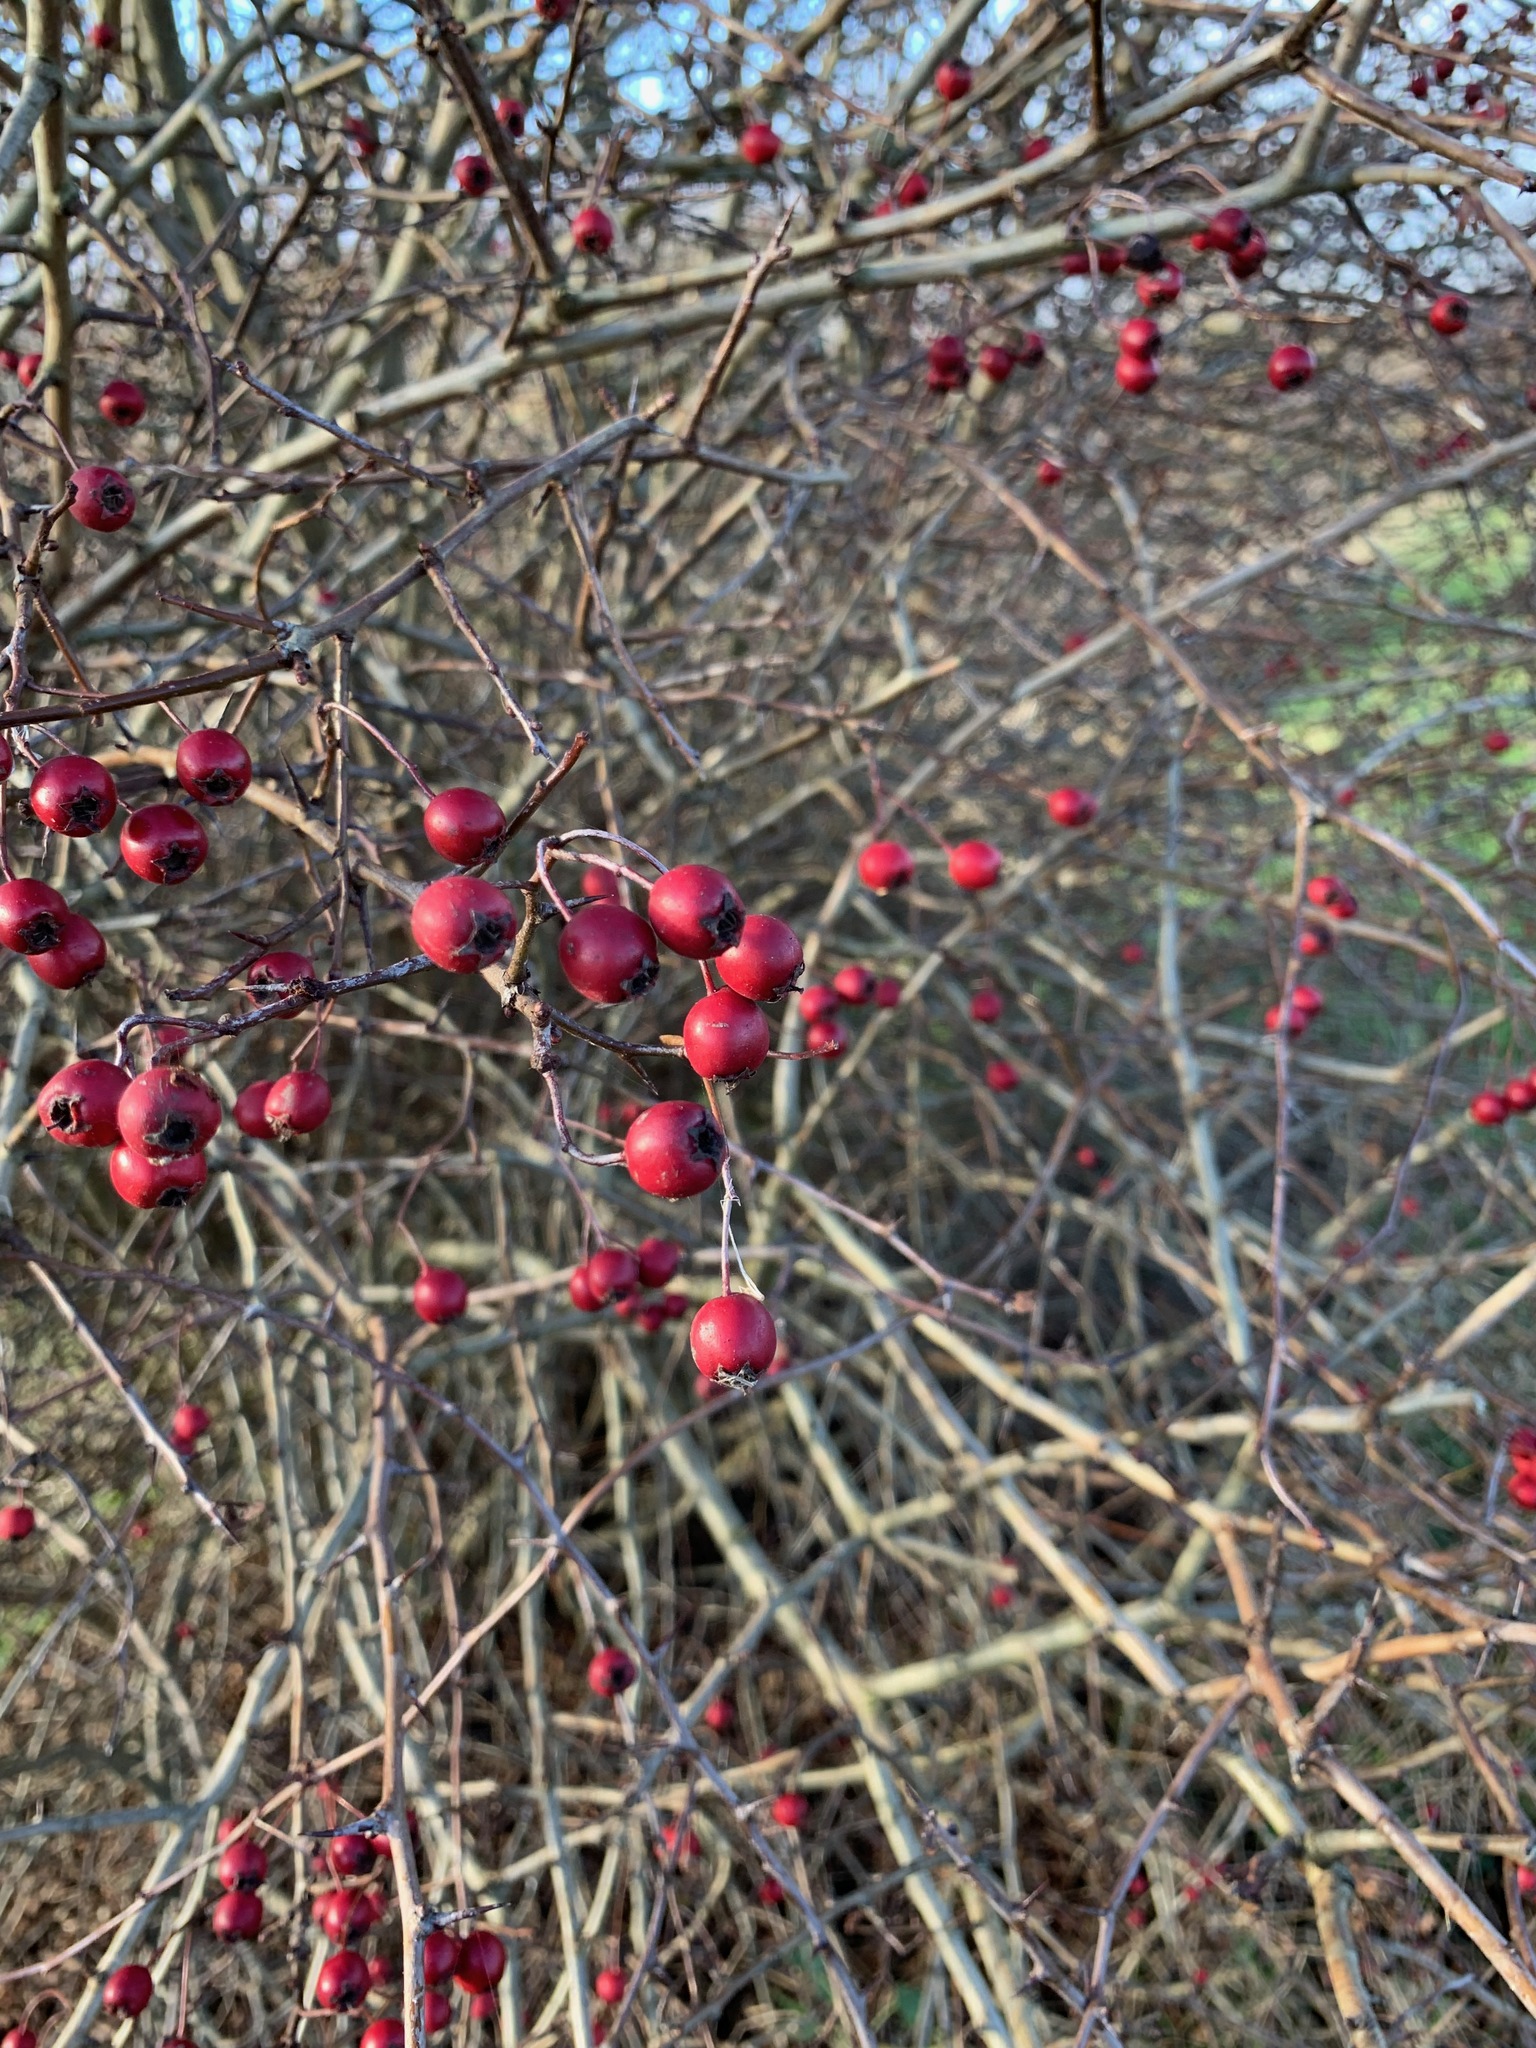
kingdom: Plantae
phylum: Tracheophyta
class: Magnoliopsida
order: Rosales
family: Rosaceae
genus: Crataegus
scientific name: Crataegus monogyna
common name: Hawthorn
